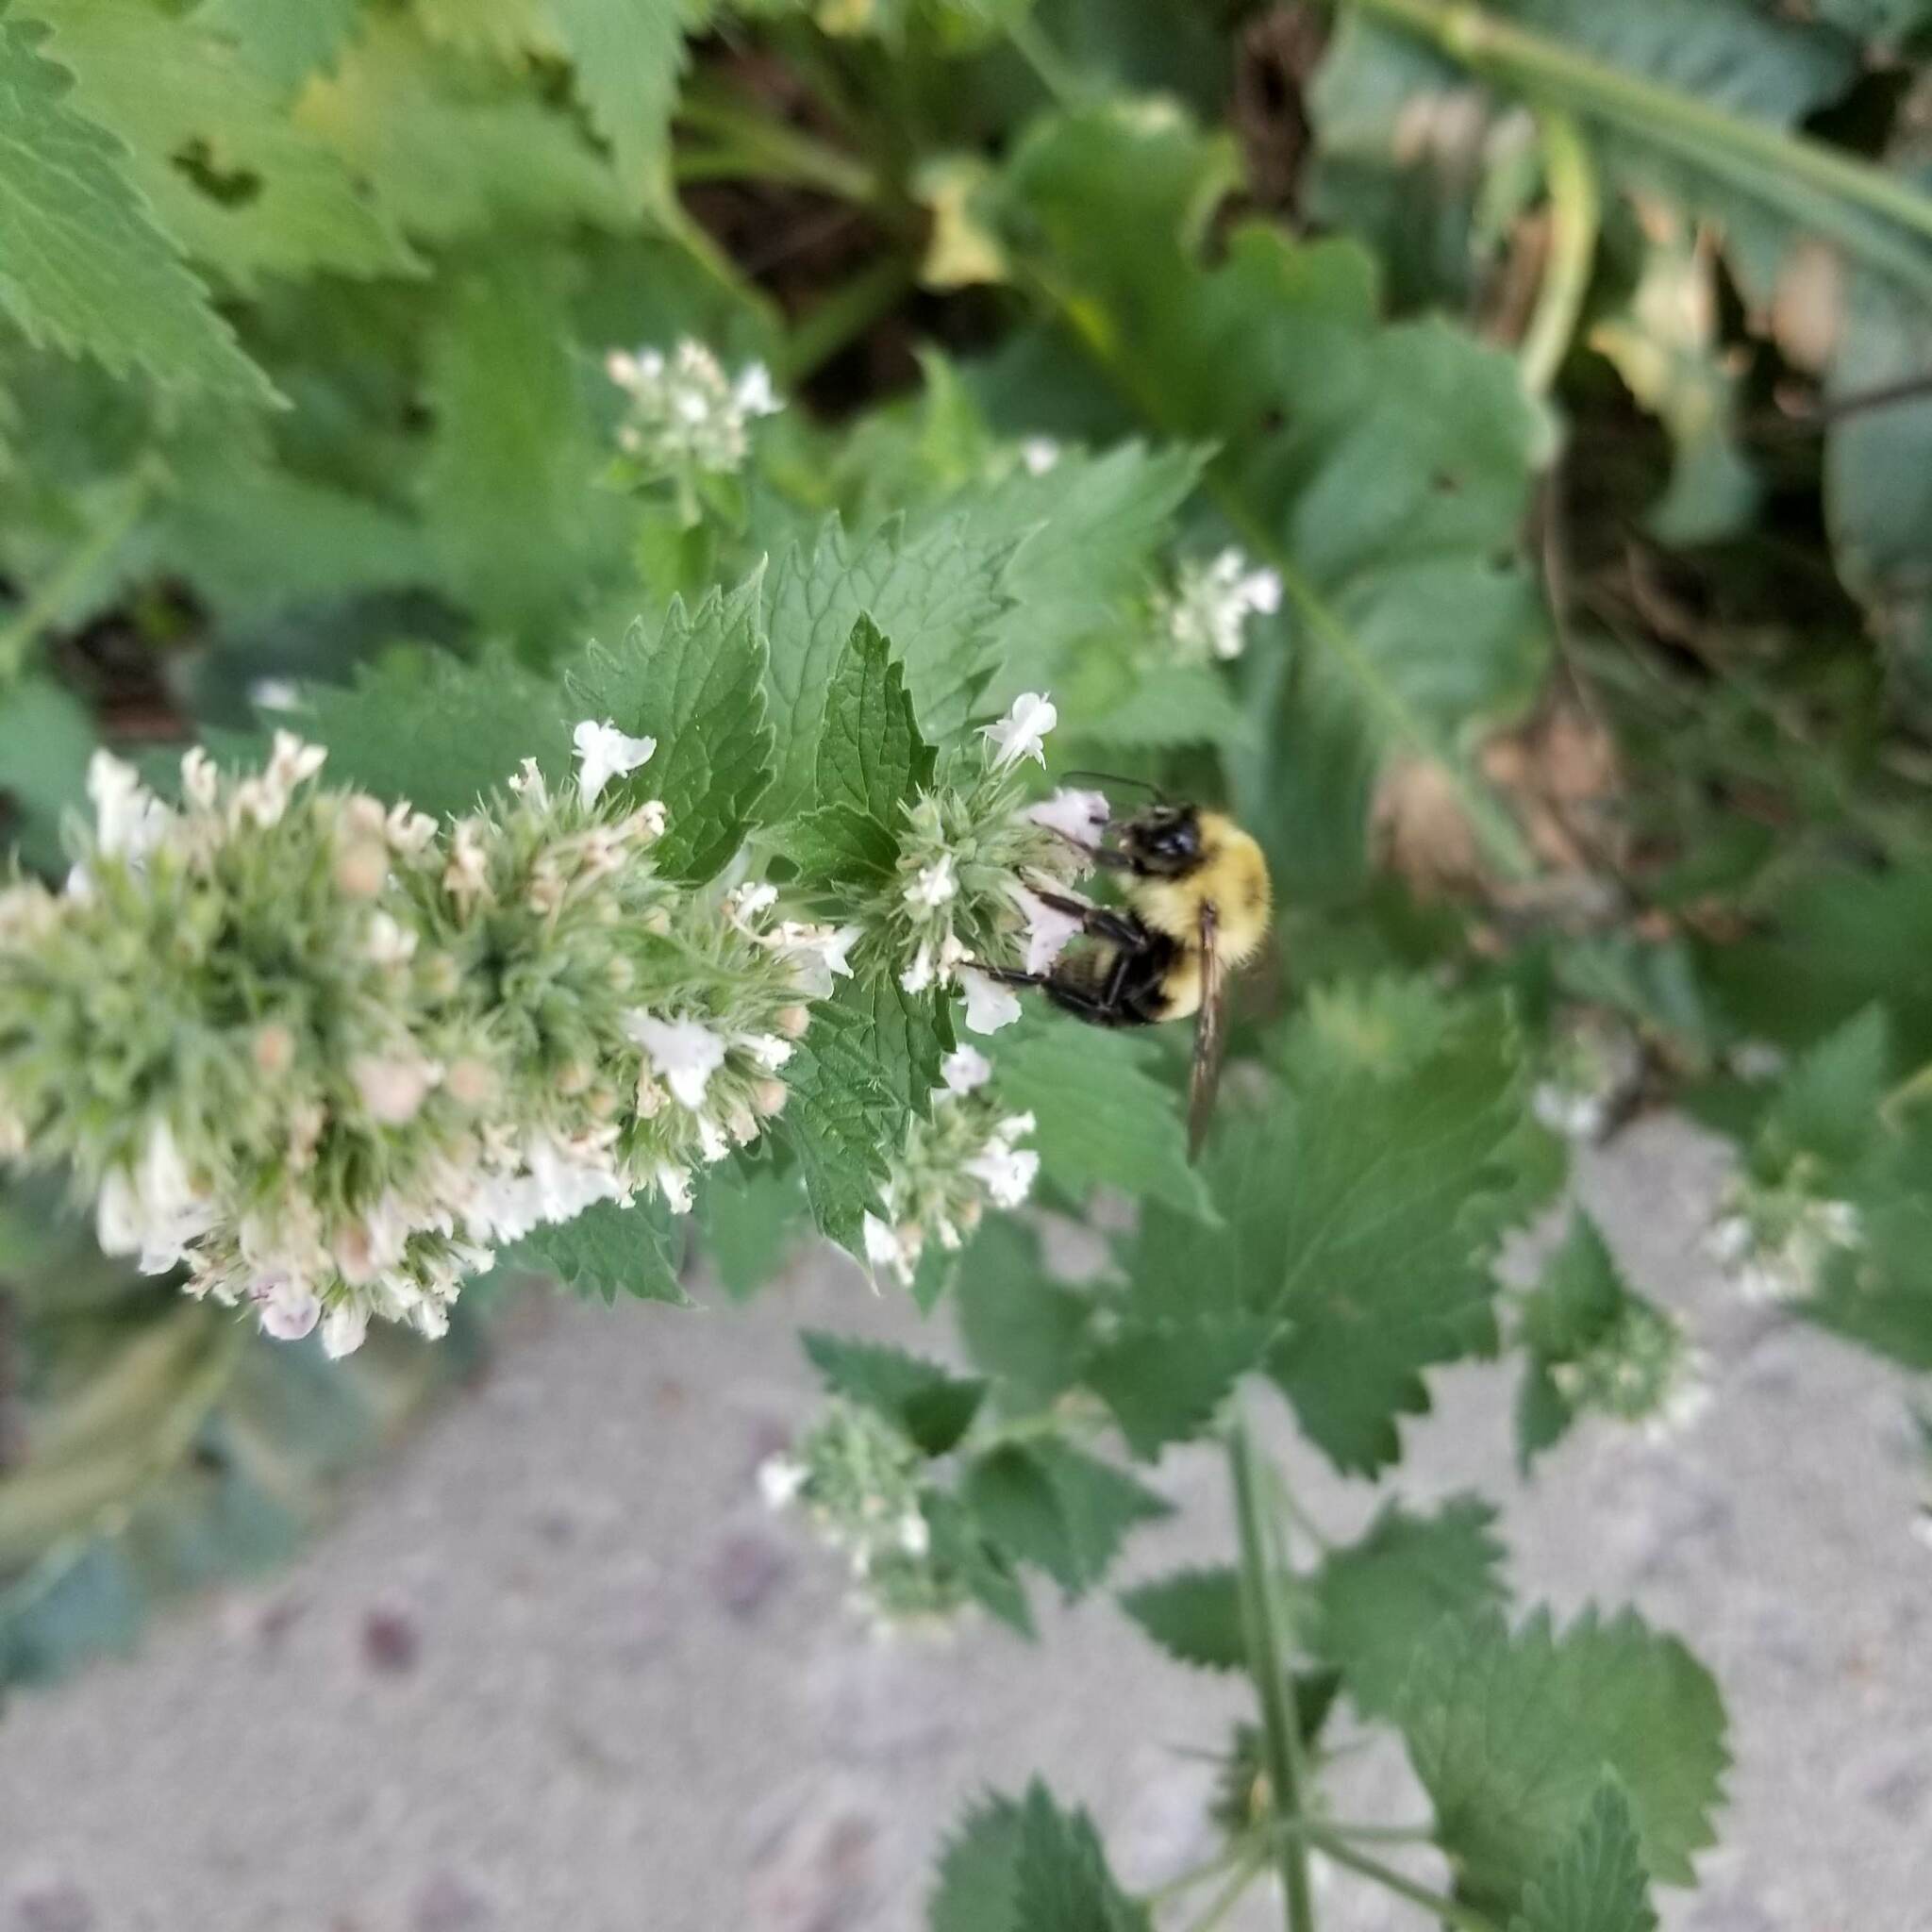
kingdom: Animalia
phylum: Arthropoda
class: Insecta
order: Hymenoptera
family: Apidae
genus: Bombus
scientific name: Bombus bimaculatus
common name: Two-spotted bumble bee
